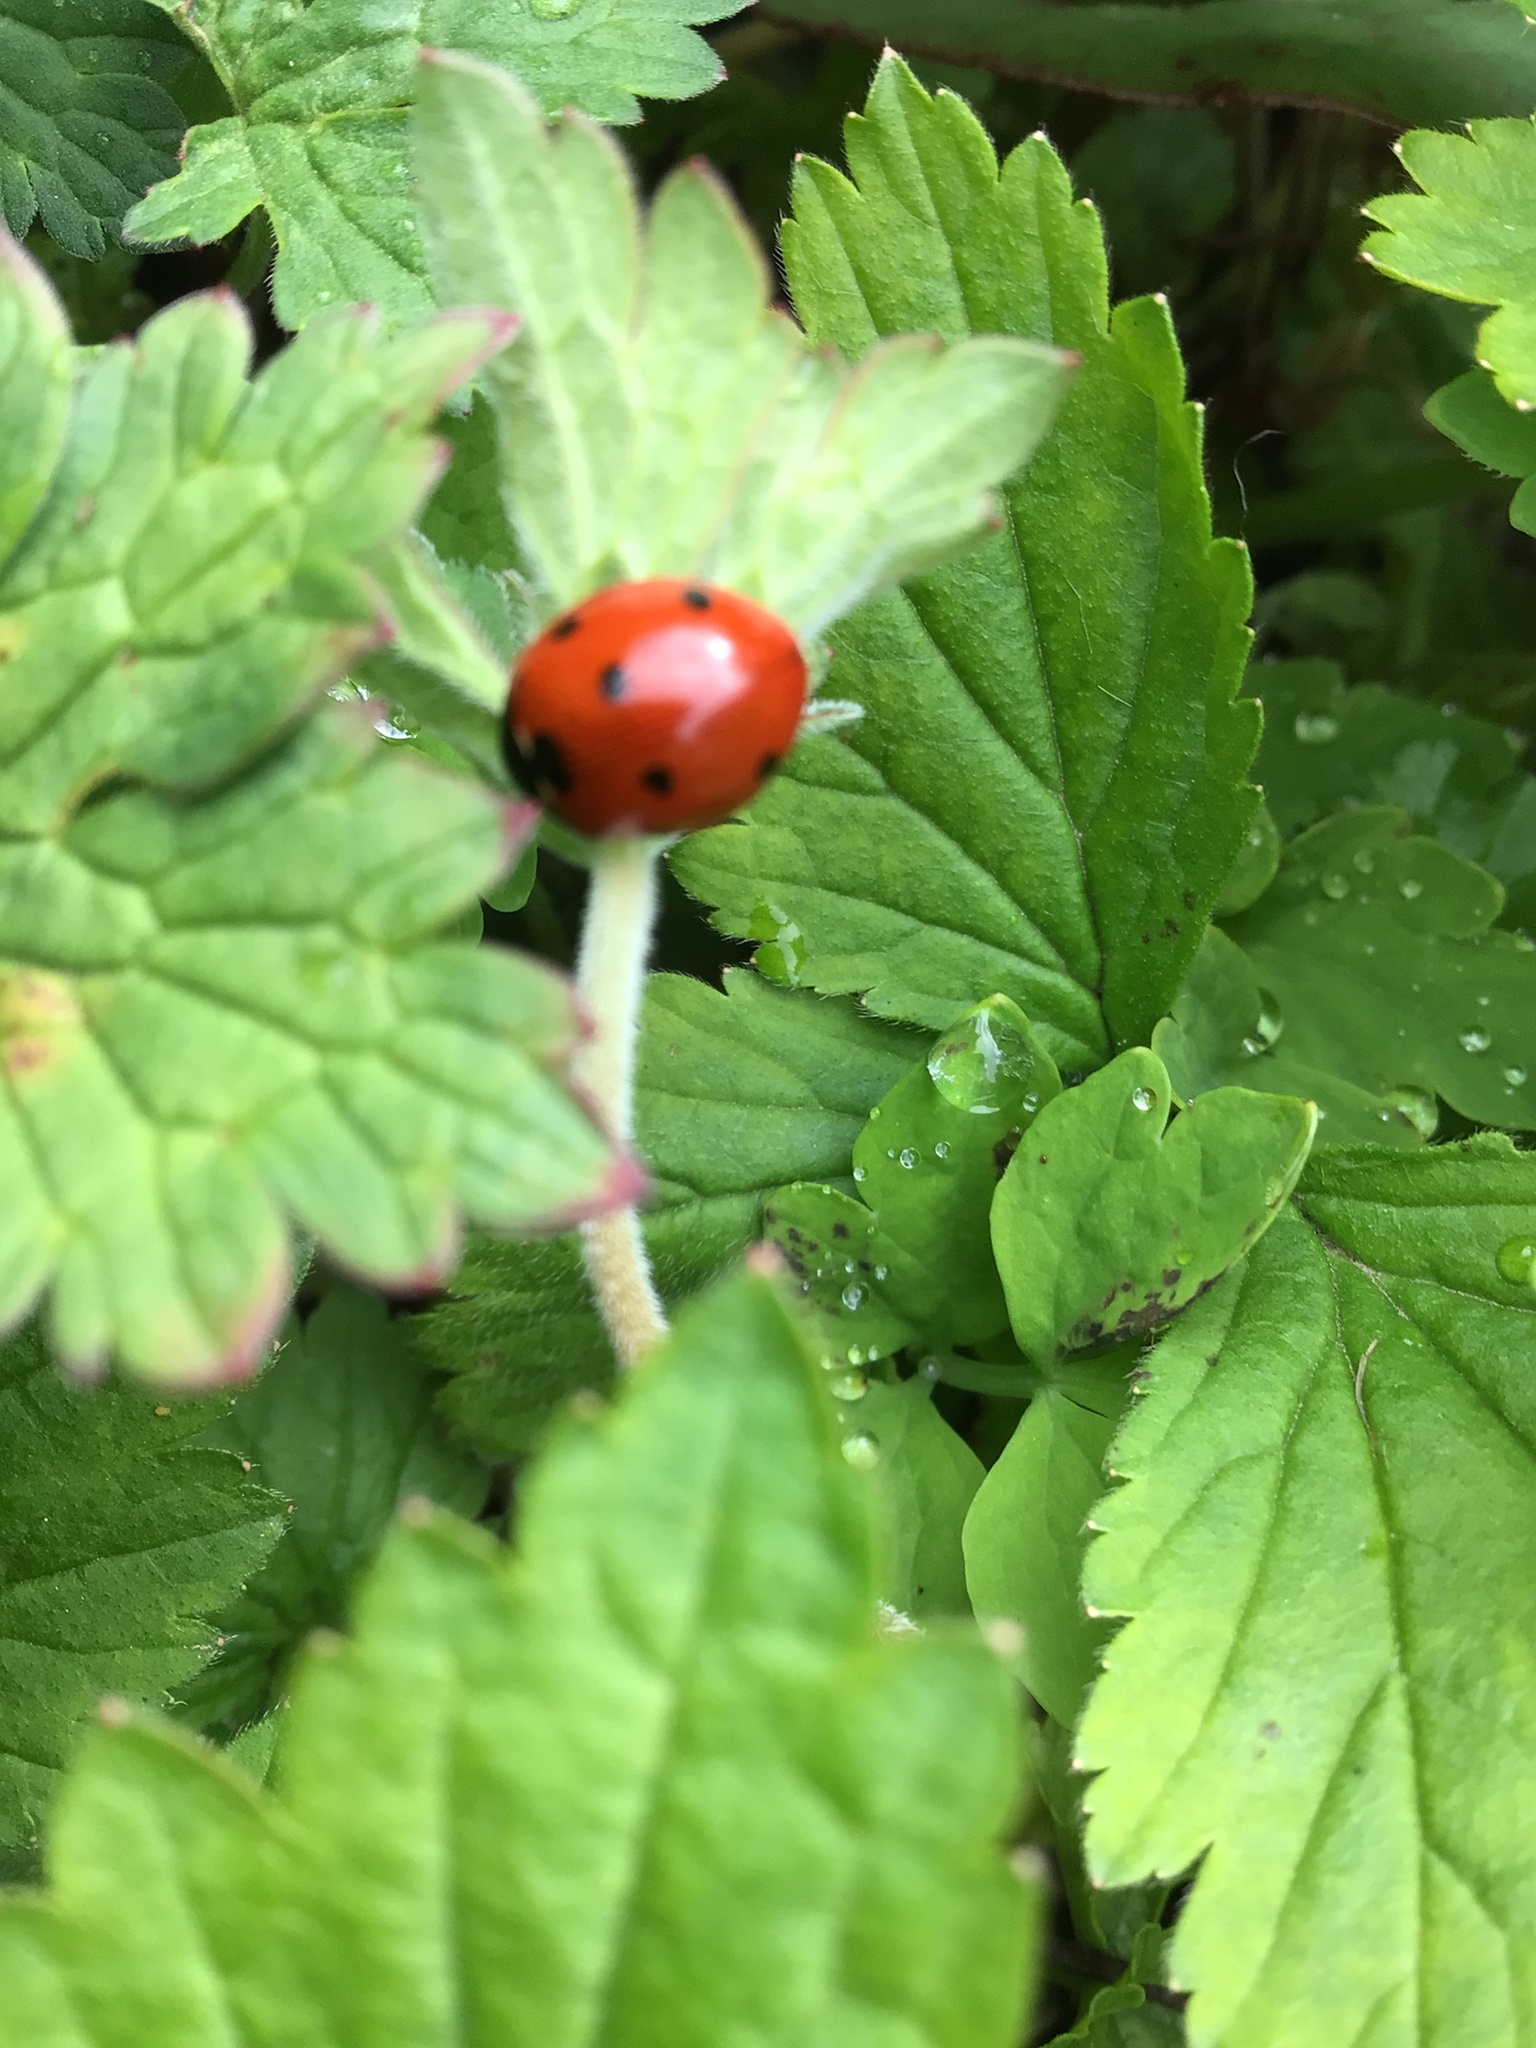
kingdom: Animalia
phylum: Arthropoda
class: Insecta
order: Coleoptera
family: Coccinellidae
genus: Coccinella
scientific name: Coccinella septempunctata
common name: Sevenspotted lady beetle
